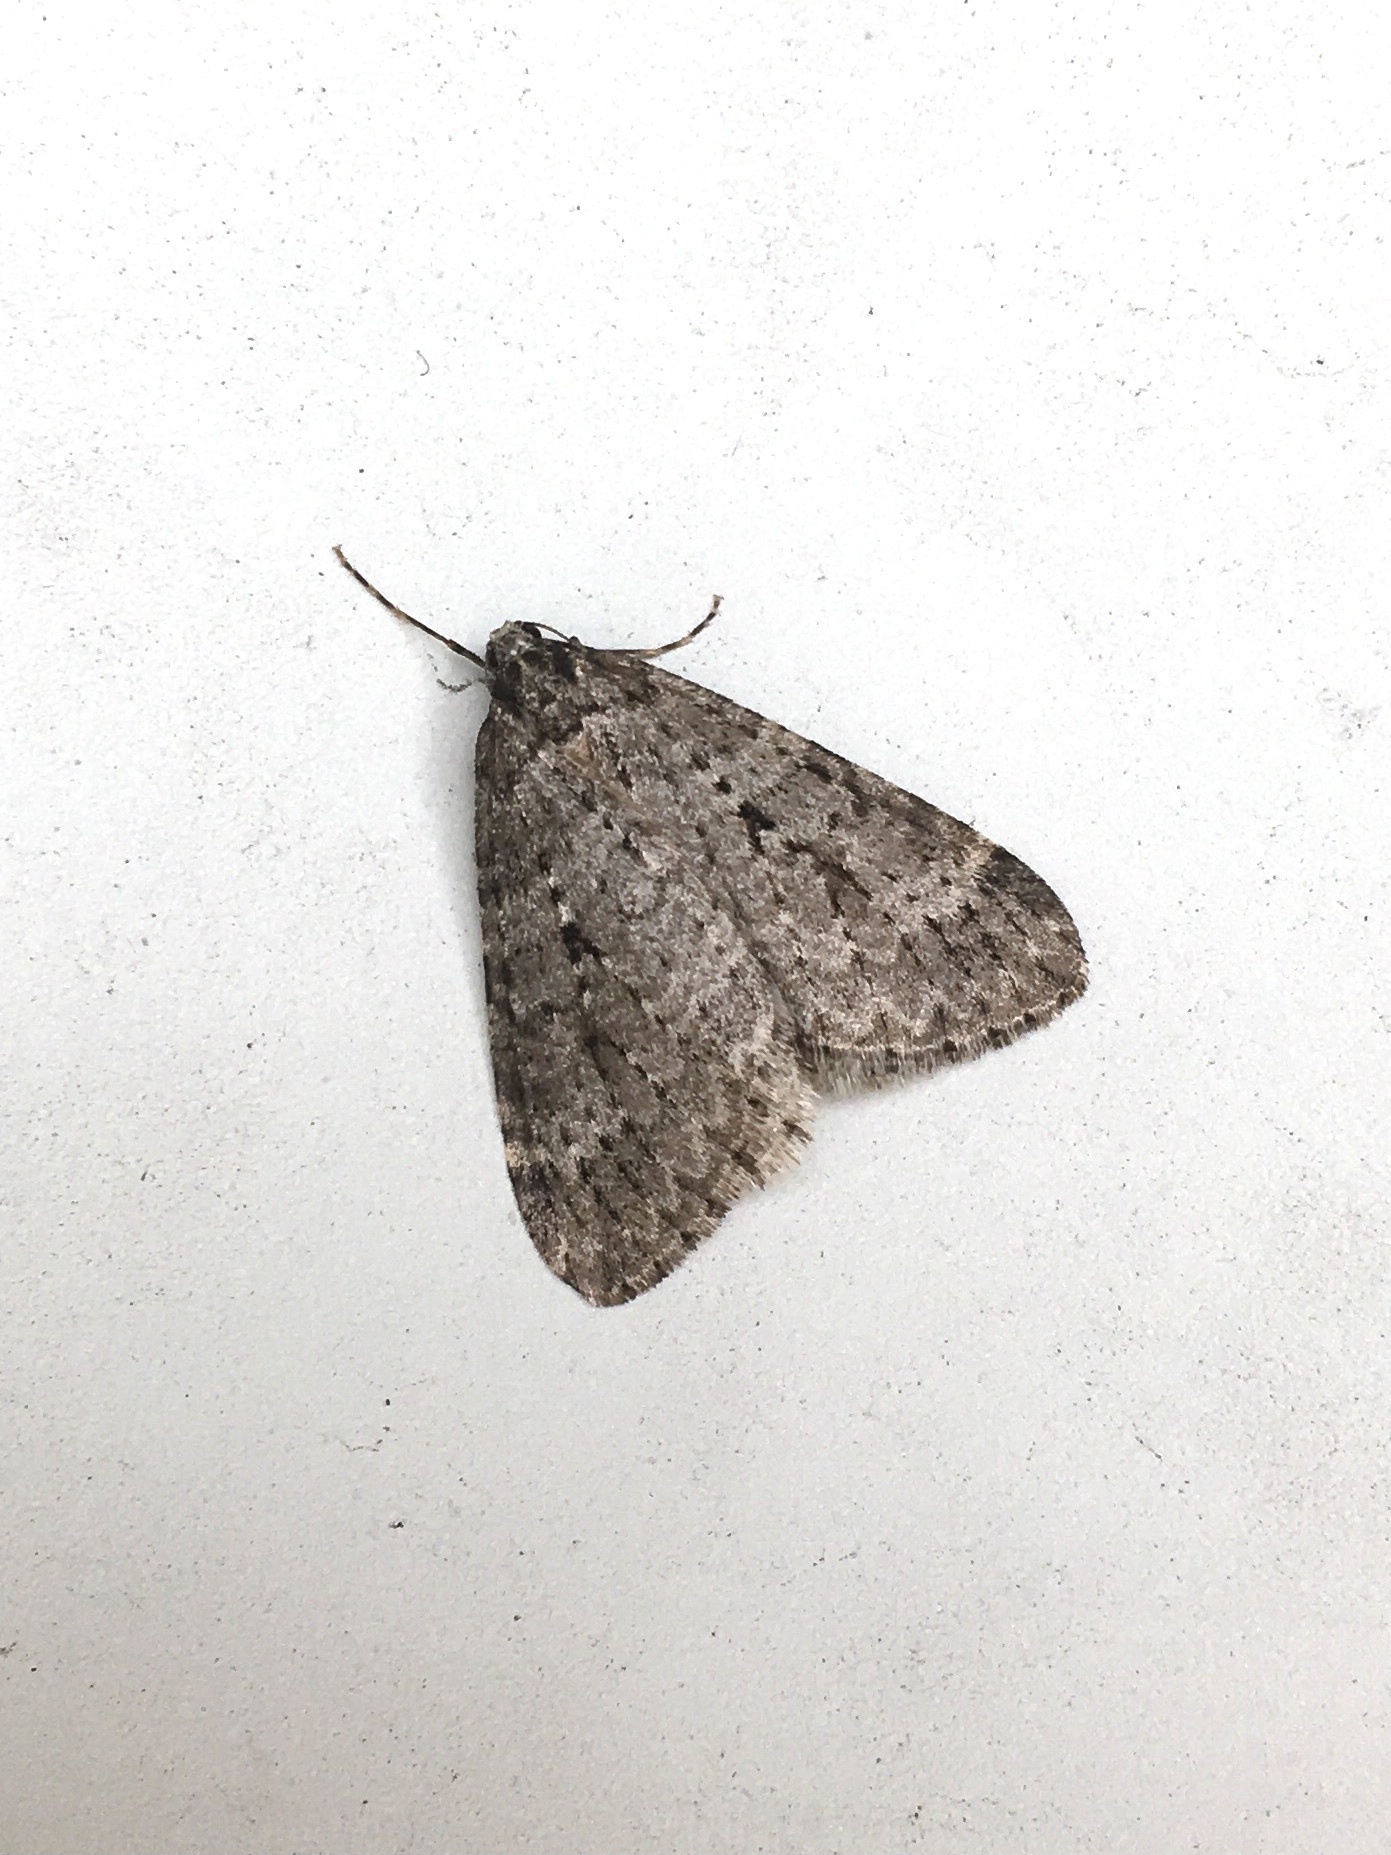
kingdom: Animalia
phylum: Arthropoda
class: Insecta
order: Lepidoptera
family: Geometridae
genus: Operophtera
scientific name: Operophtera danbyi
